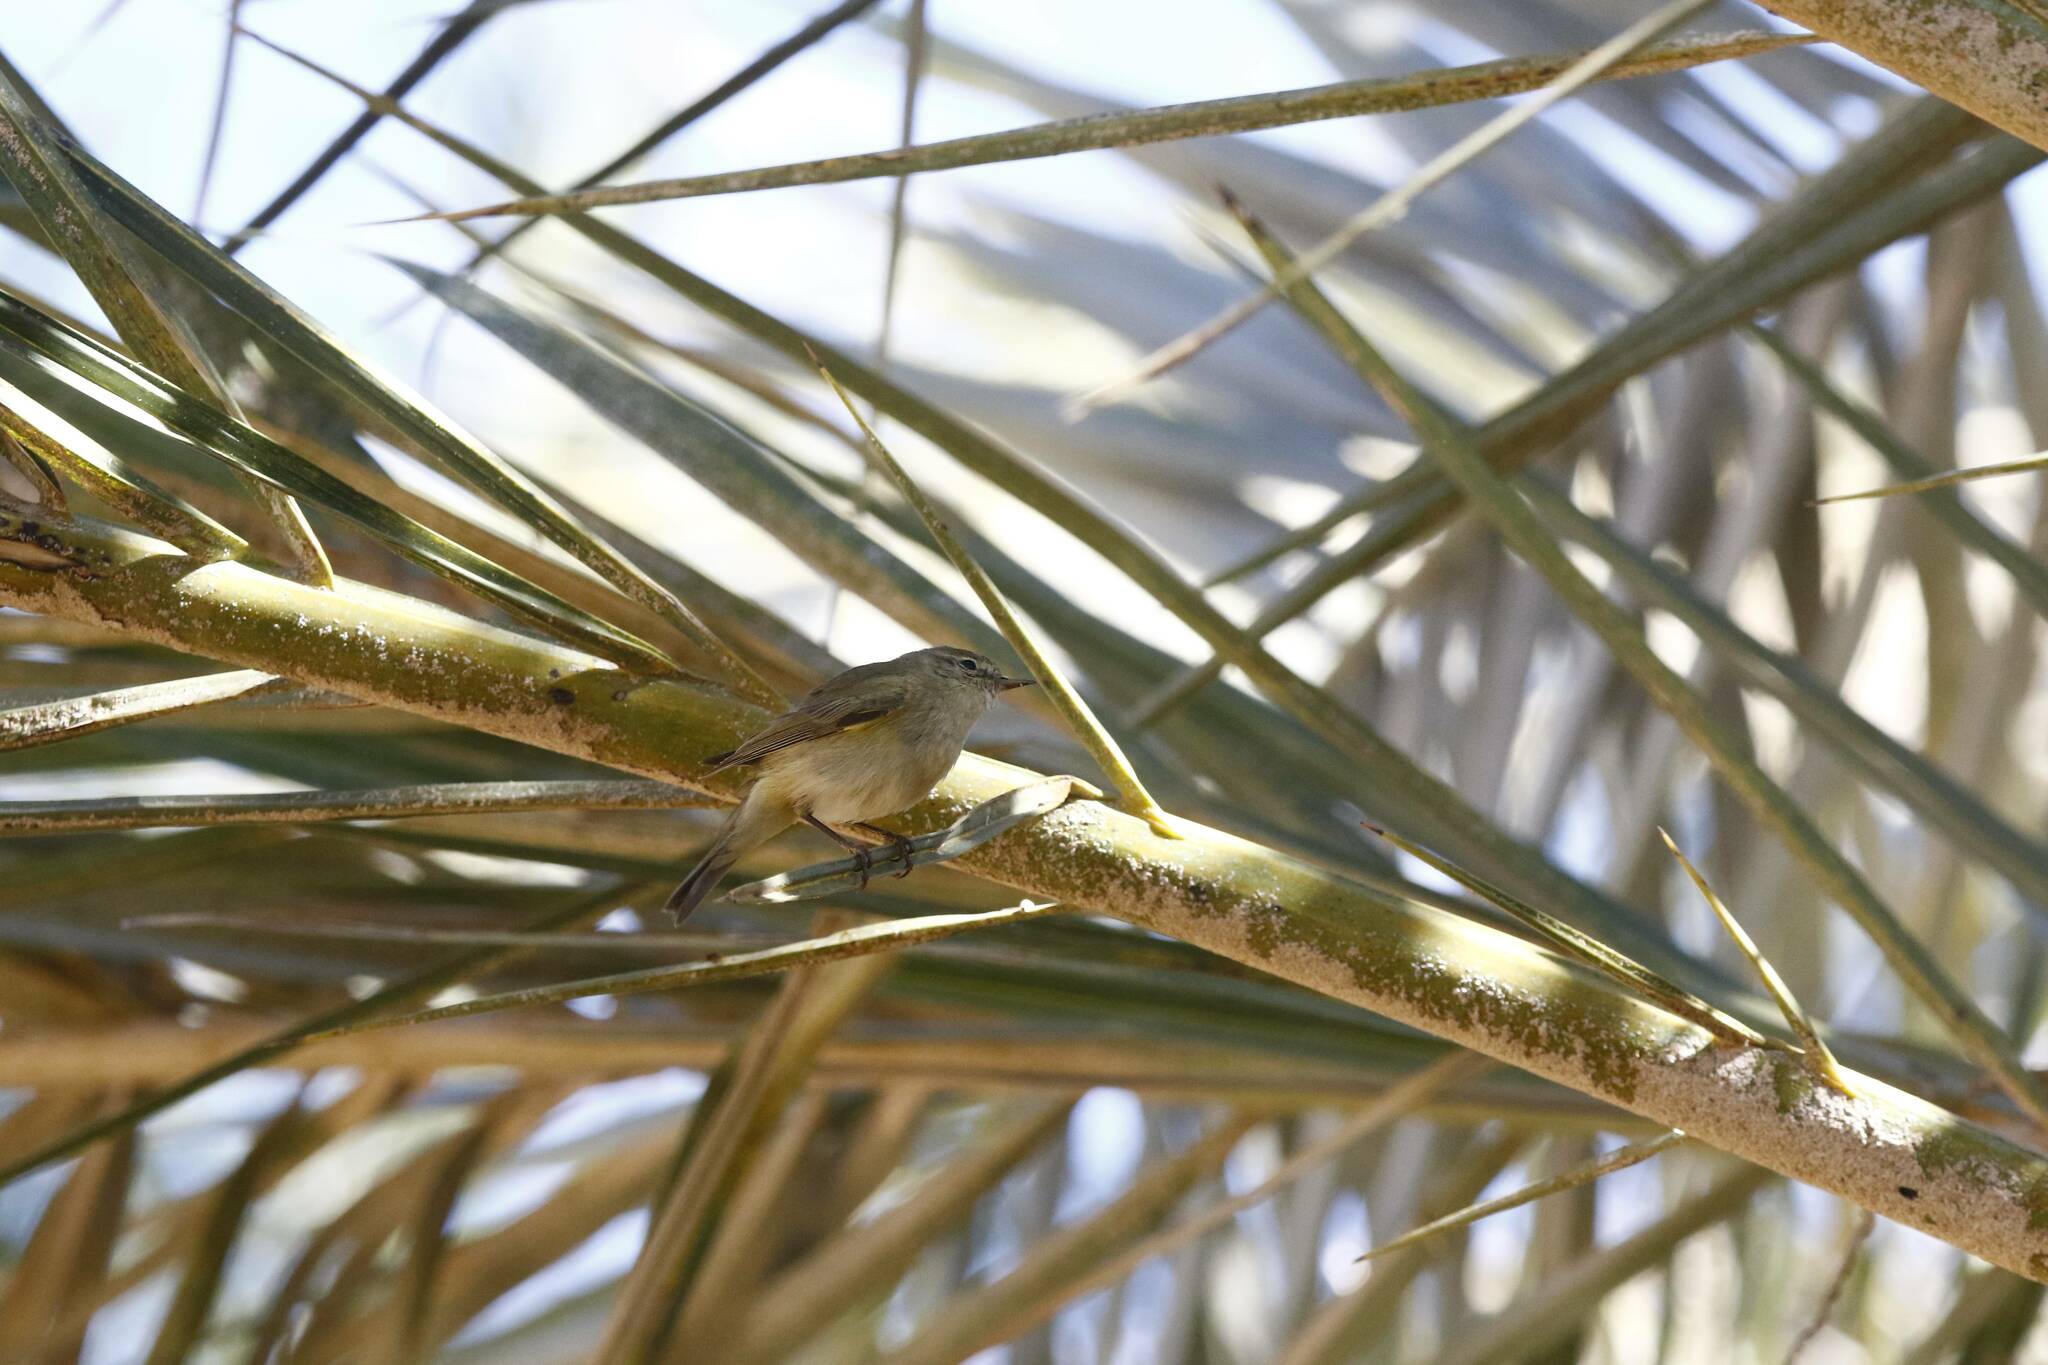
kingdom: Animalia
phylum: Chordata
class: Aves
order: Passeriformes
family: Phylloscopidae
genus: Phylloscopus
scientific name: Phylloscopus collybita
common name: Common chiffchaff
